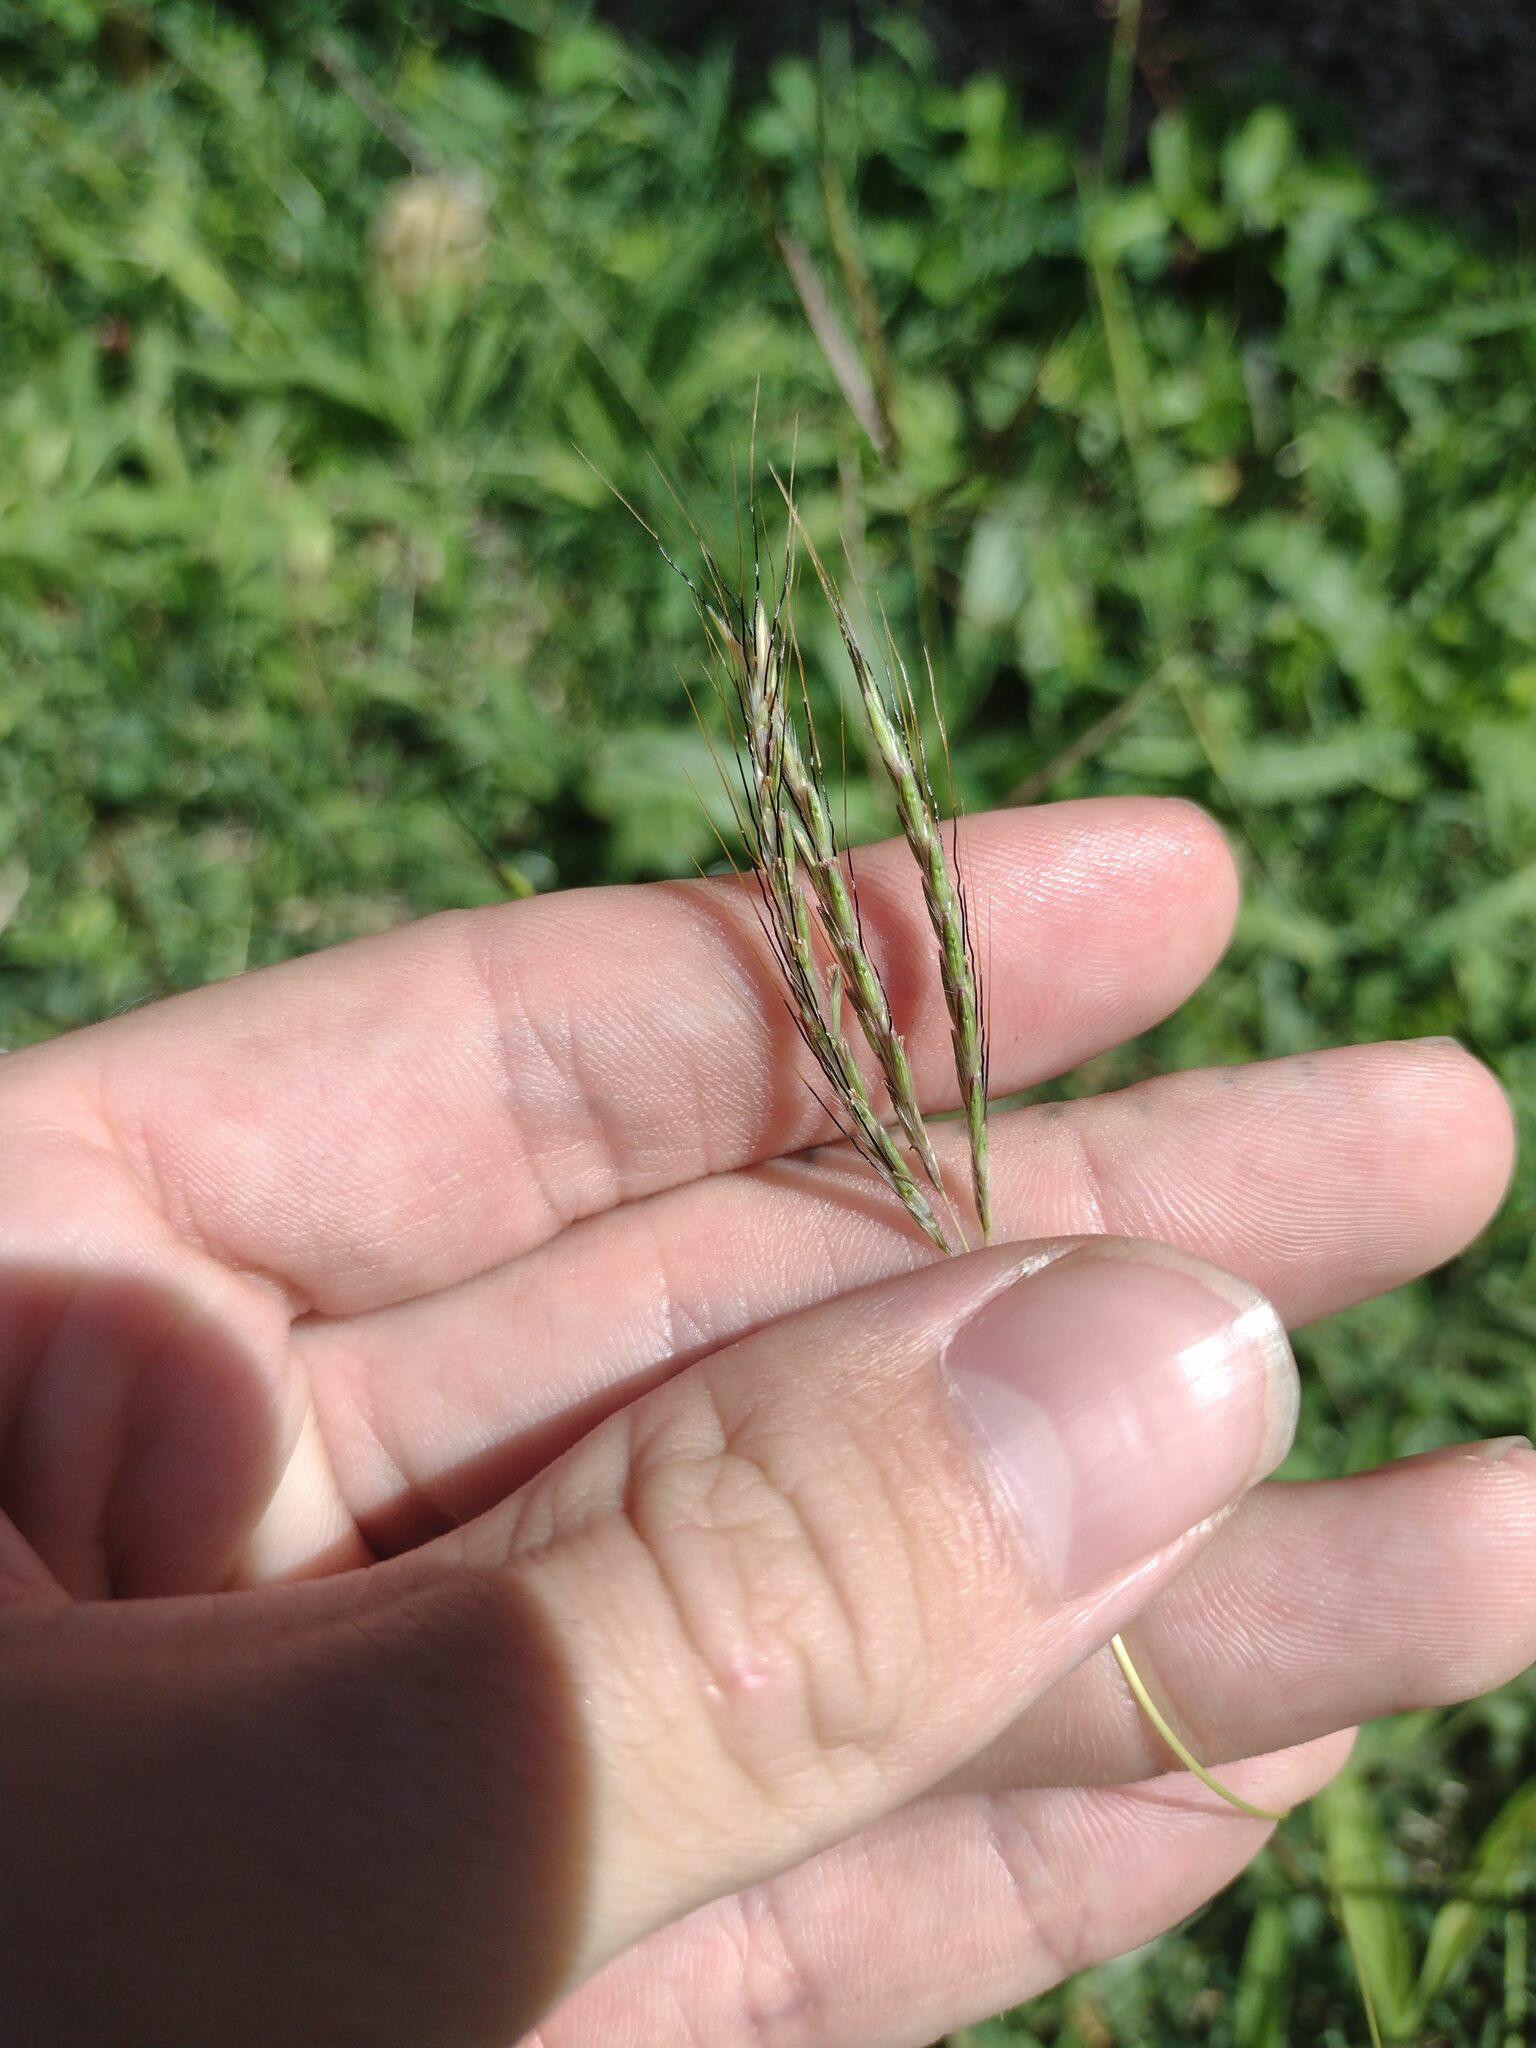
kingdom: Plantae
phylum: Tracheophyta
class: Liliopsida
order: Poales
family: Poaceae
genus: Bothriochloa
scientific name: Bothriochloa pertusa
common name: Pitted beardgrass
